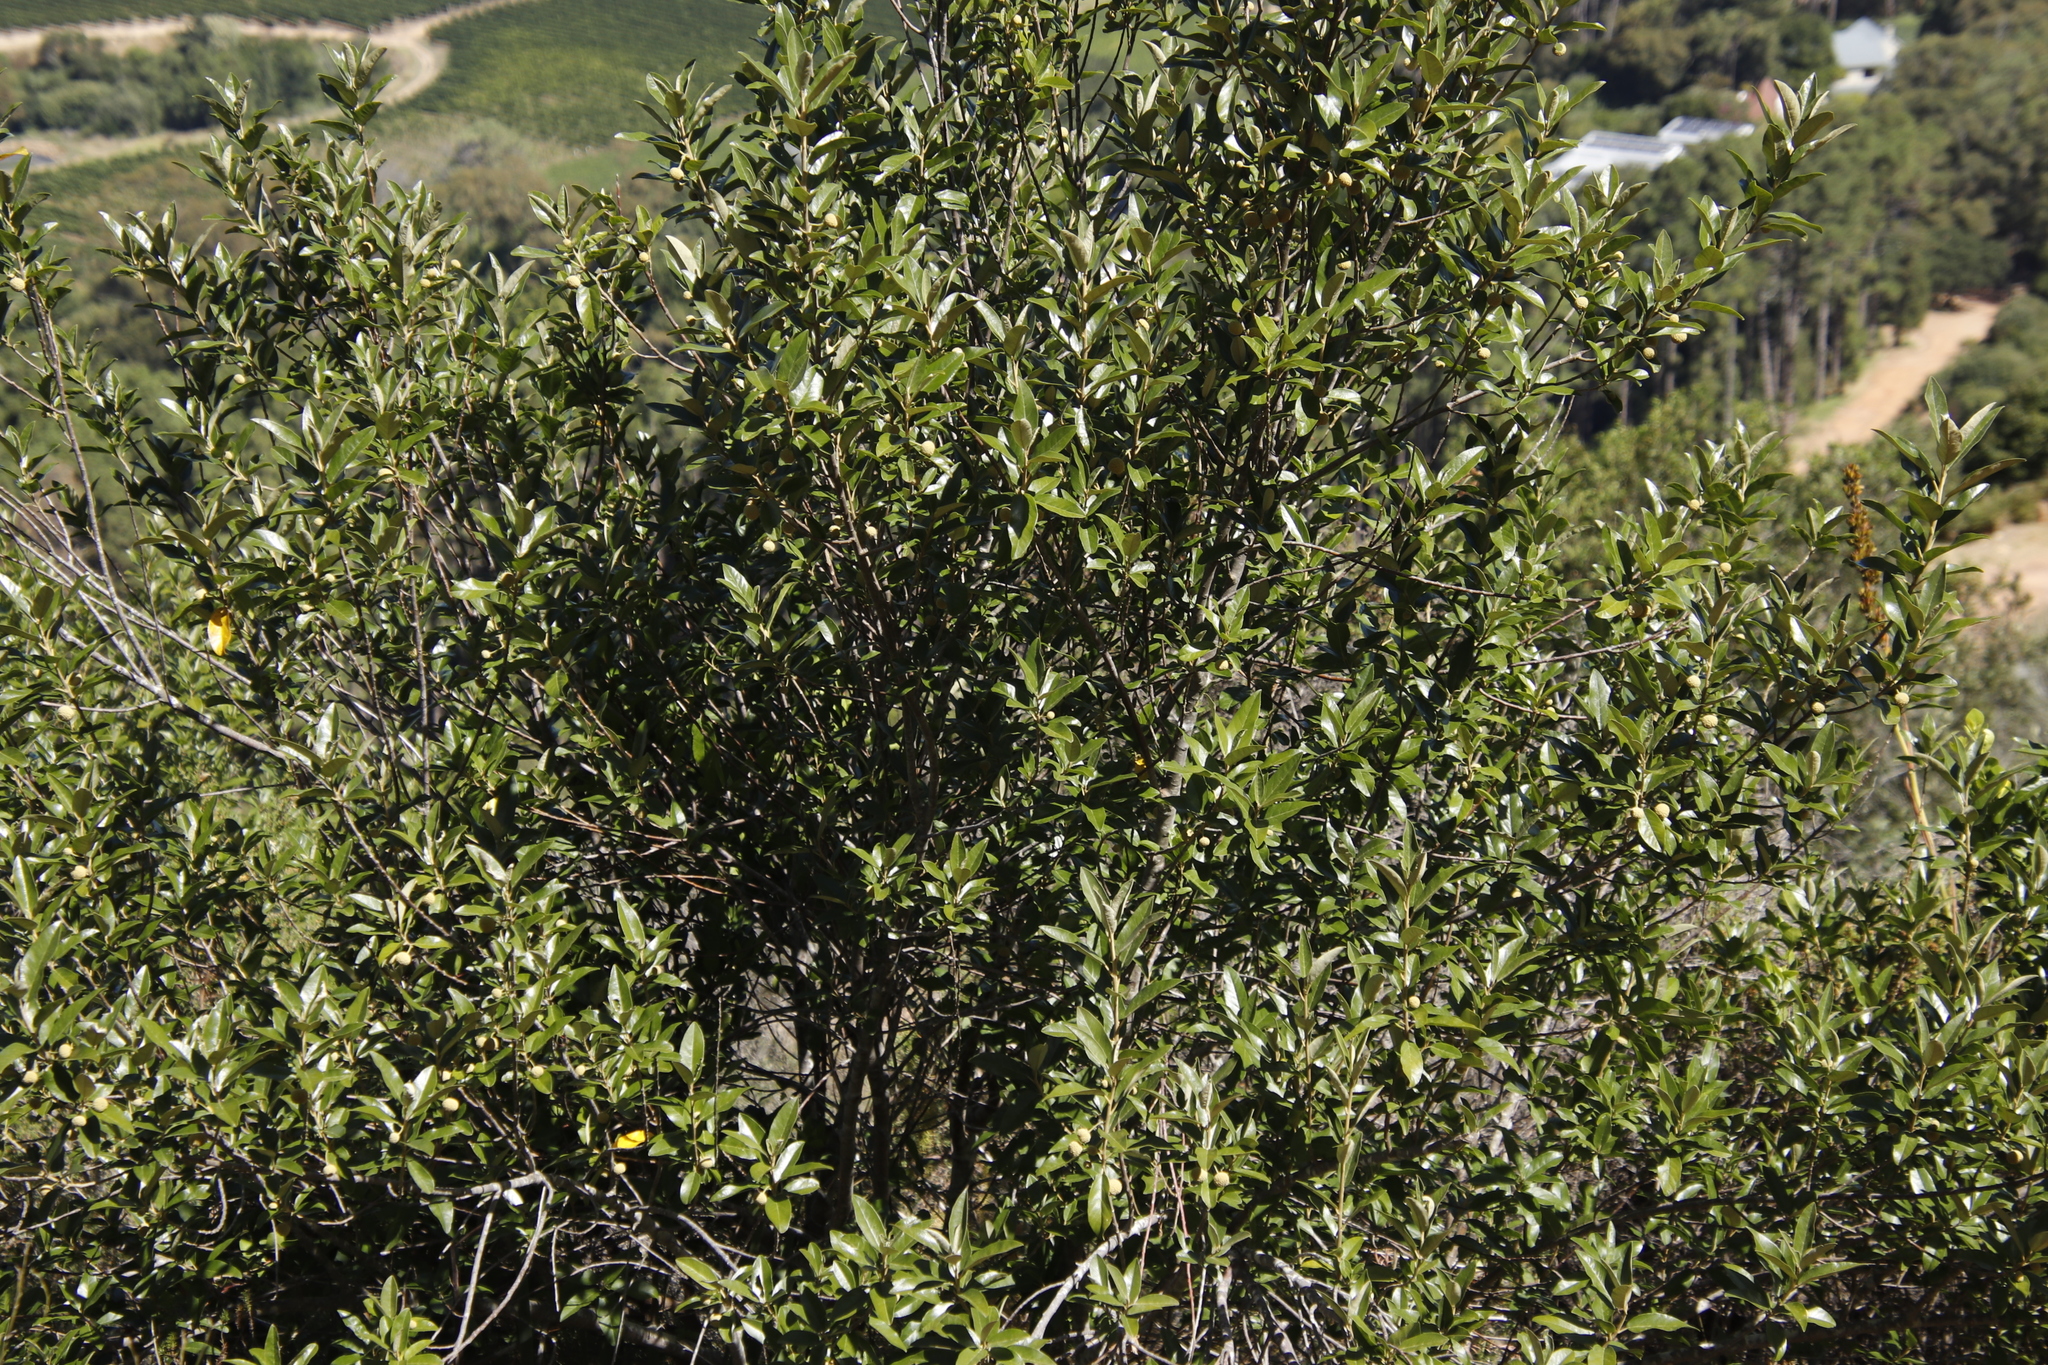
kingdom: Plantae
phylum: Tracheophyta
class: Magnoliopsida
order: Malpighiales
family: Achariaceae
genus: Kiggelaria
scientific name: Kiggelaria africana
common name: Wild peach
